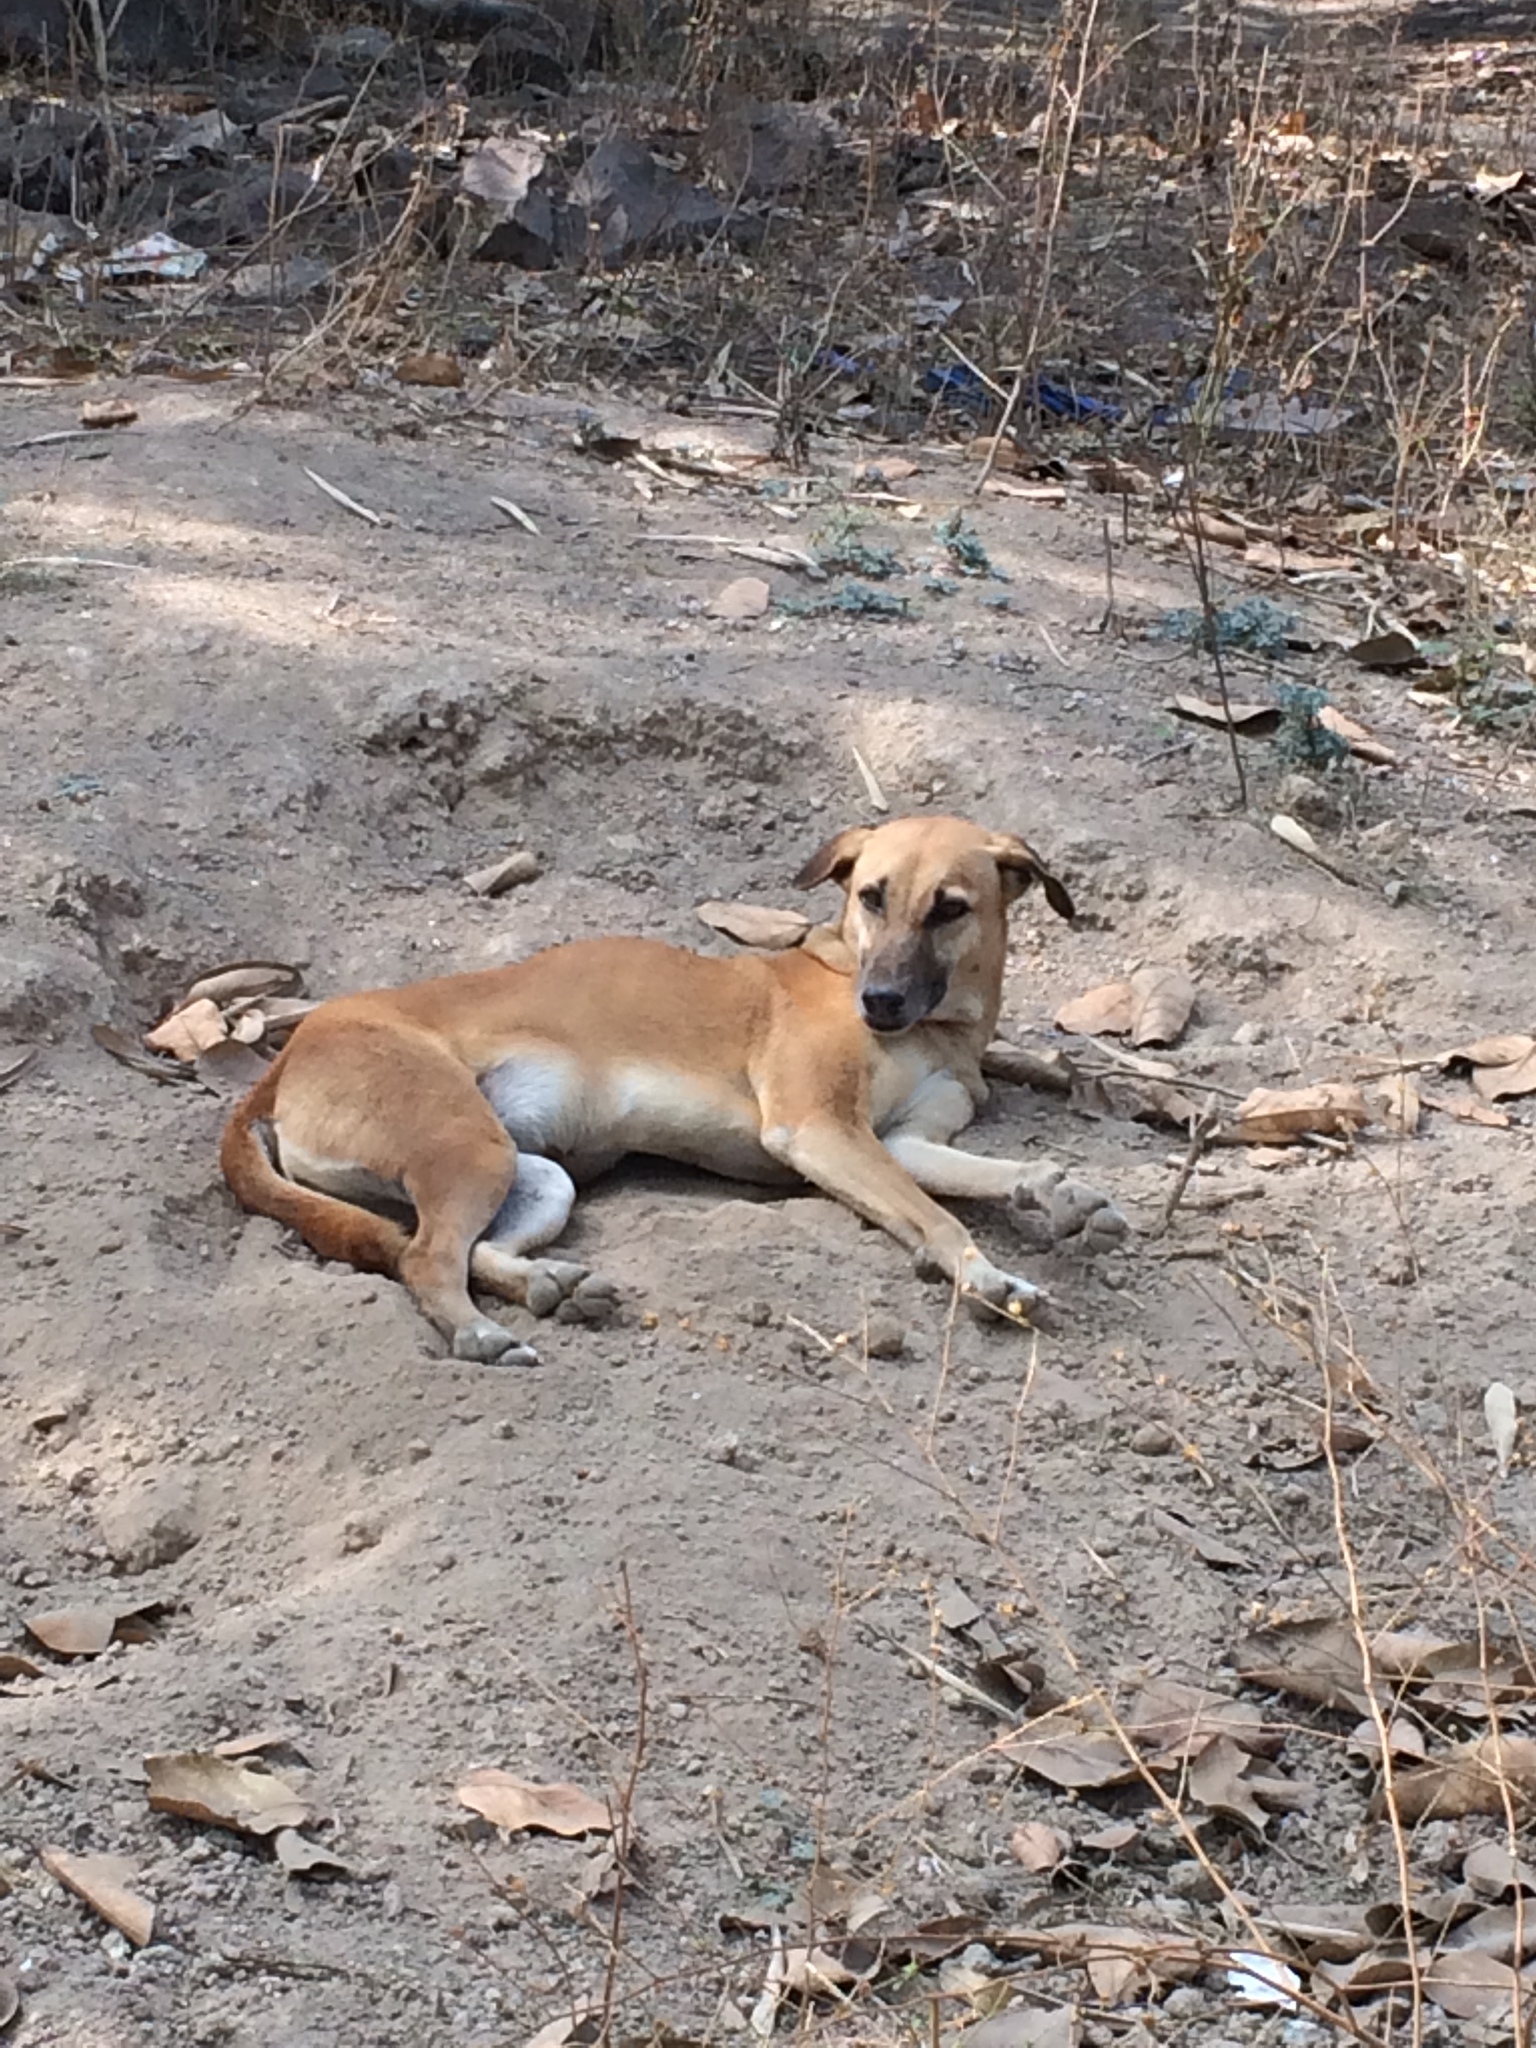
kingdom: Animalia
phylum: Chordata
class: Mammalia
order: Carnivora
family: Canidae
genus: Canis
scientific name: Canis lupus
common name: Gray wolf
